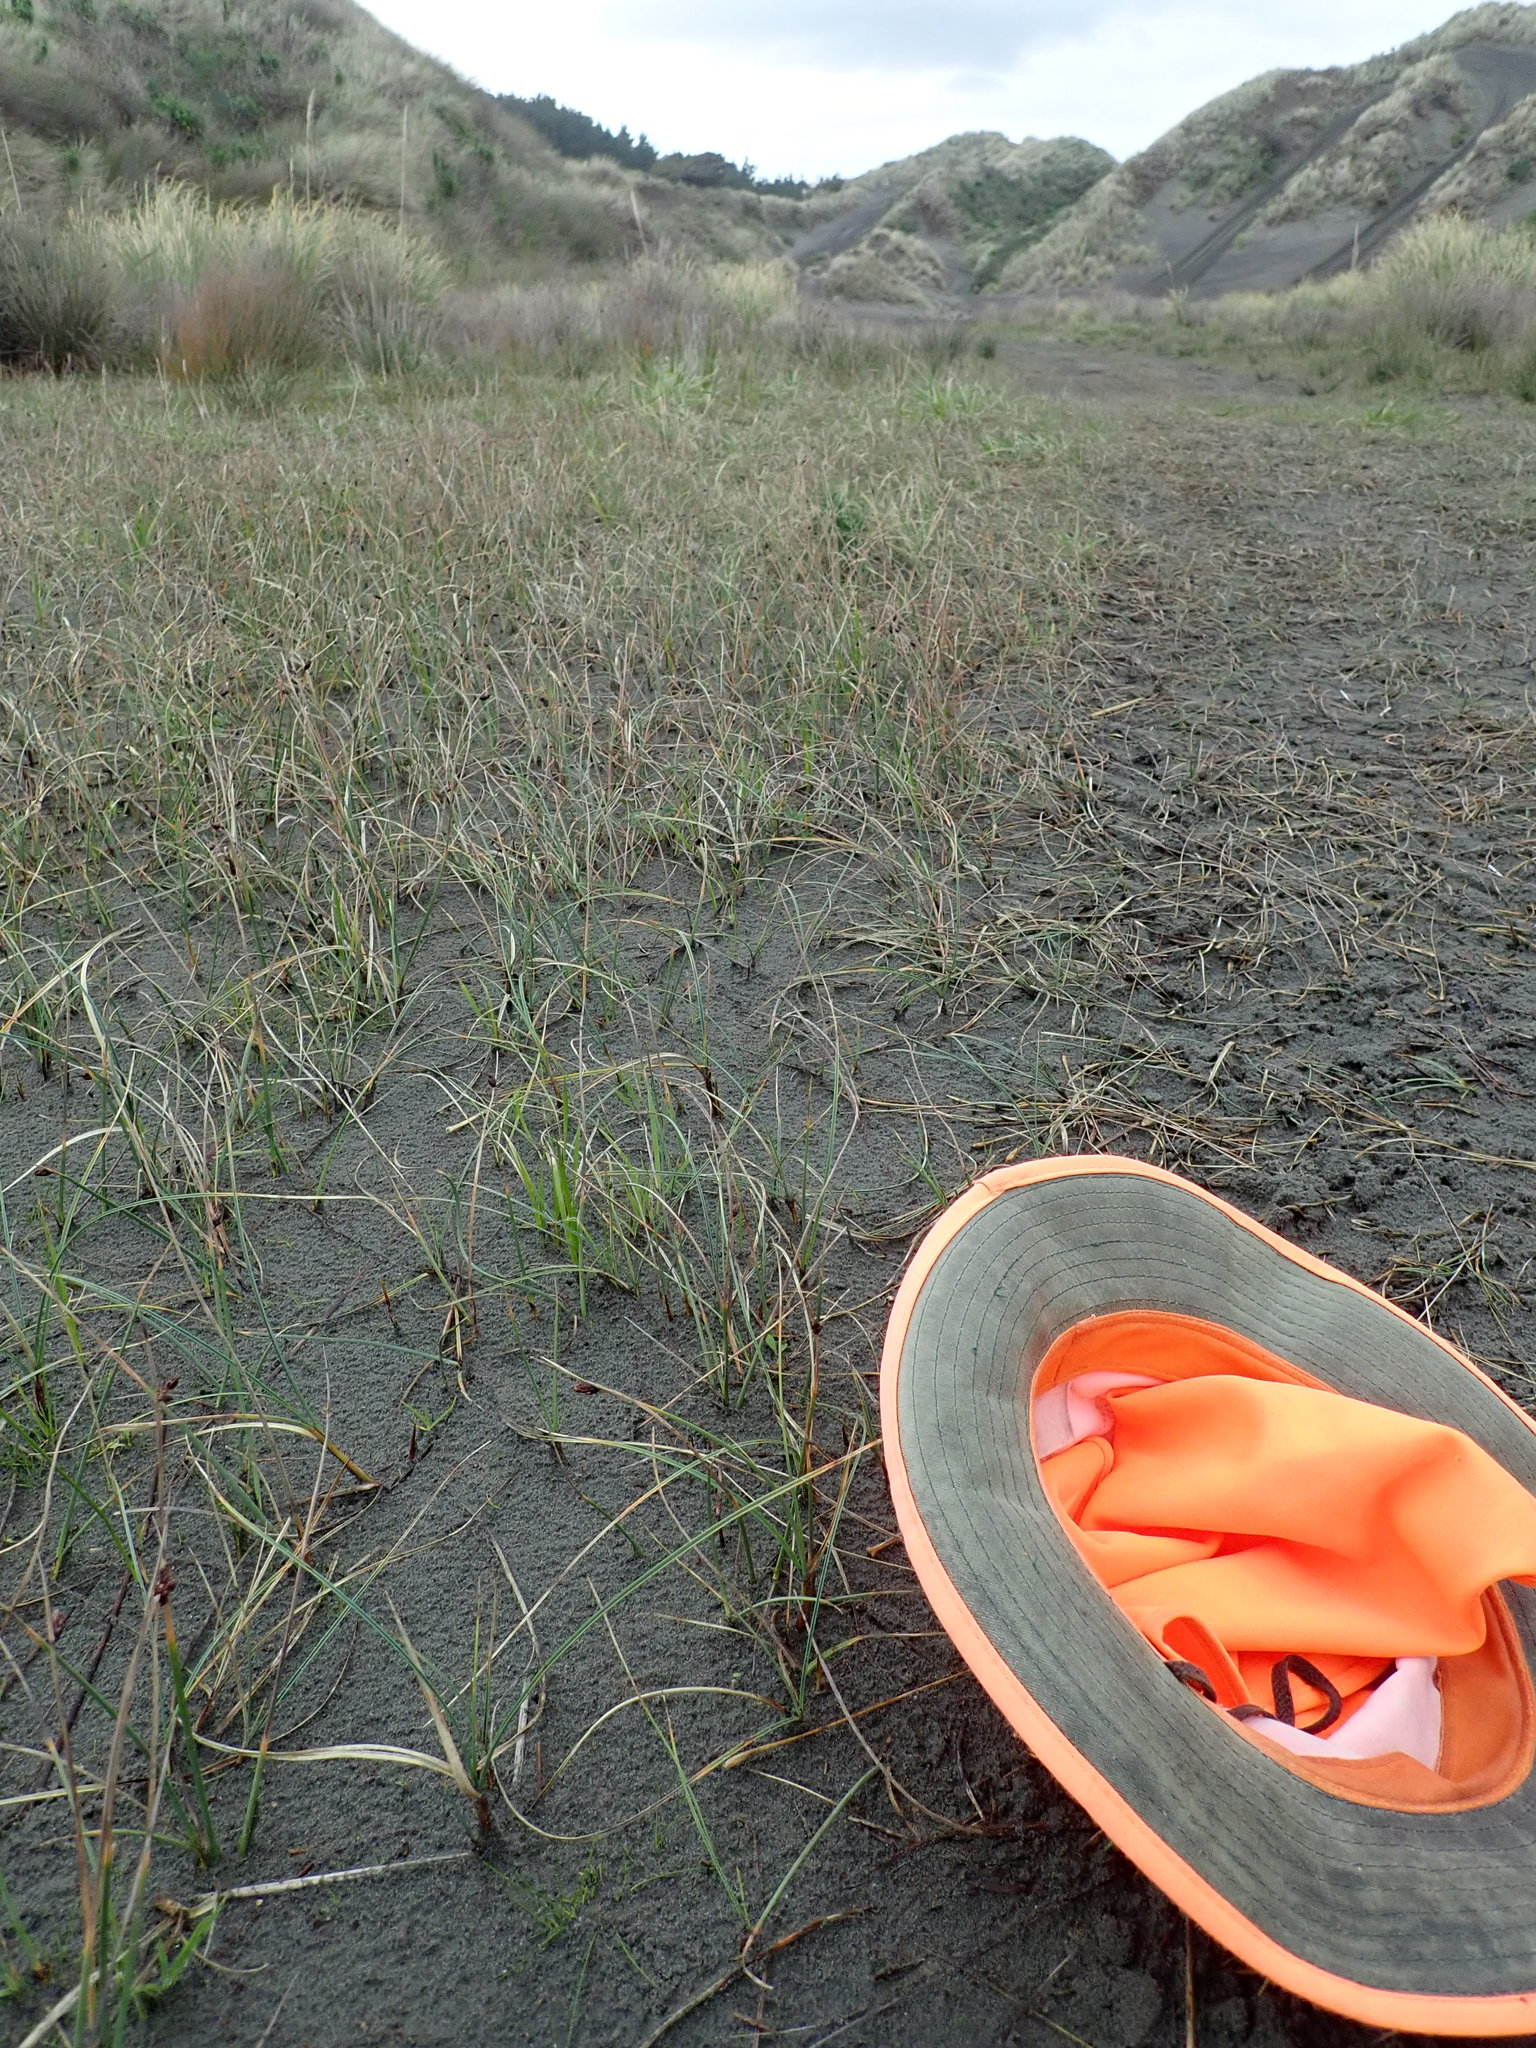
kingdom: Plantae
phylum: Tracheophyta
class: Liliopsida
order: Poales
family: Cyperaceae
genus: Carex
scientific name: Carex pumila
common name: Dwarf sedge
